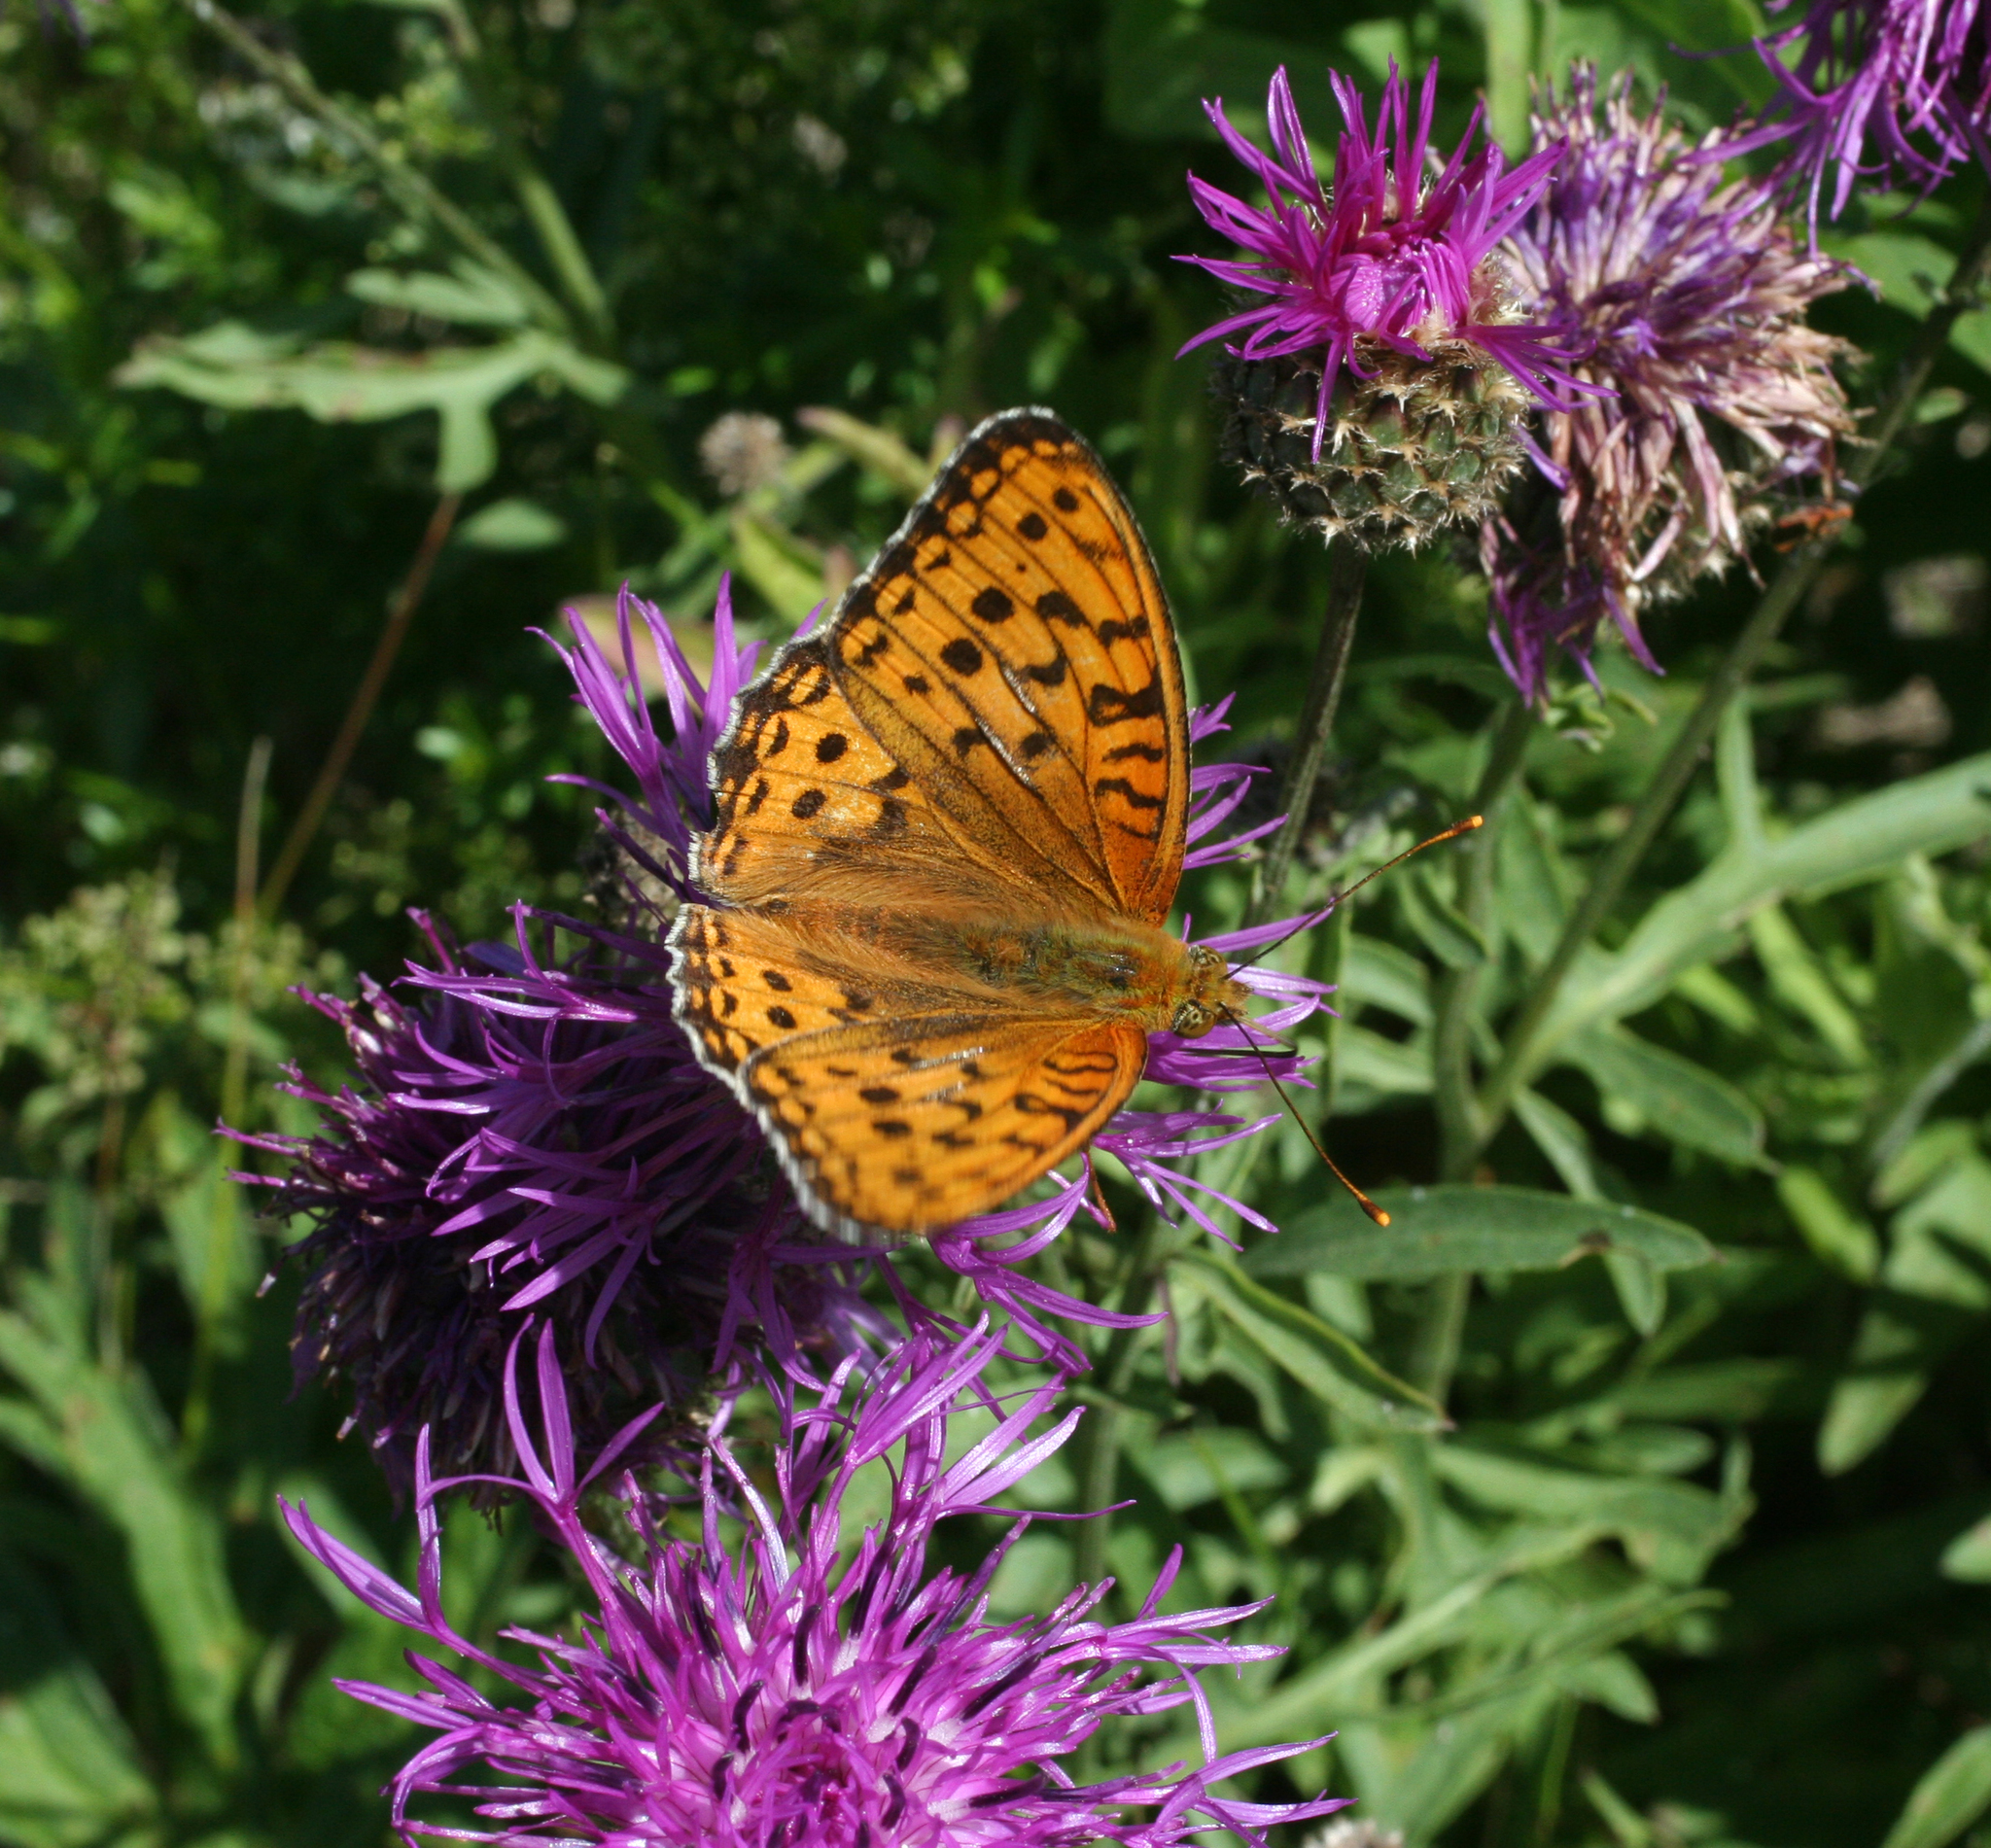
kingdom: Plantae
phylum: Tracheophyta
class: Magnoliopsida
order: Asterales
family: Asteraceae
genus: Centaurea
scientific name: Centaurea scabiosa
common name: Greater knapweed
